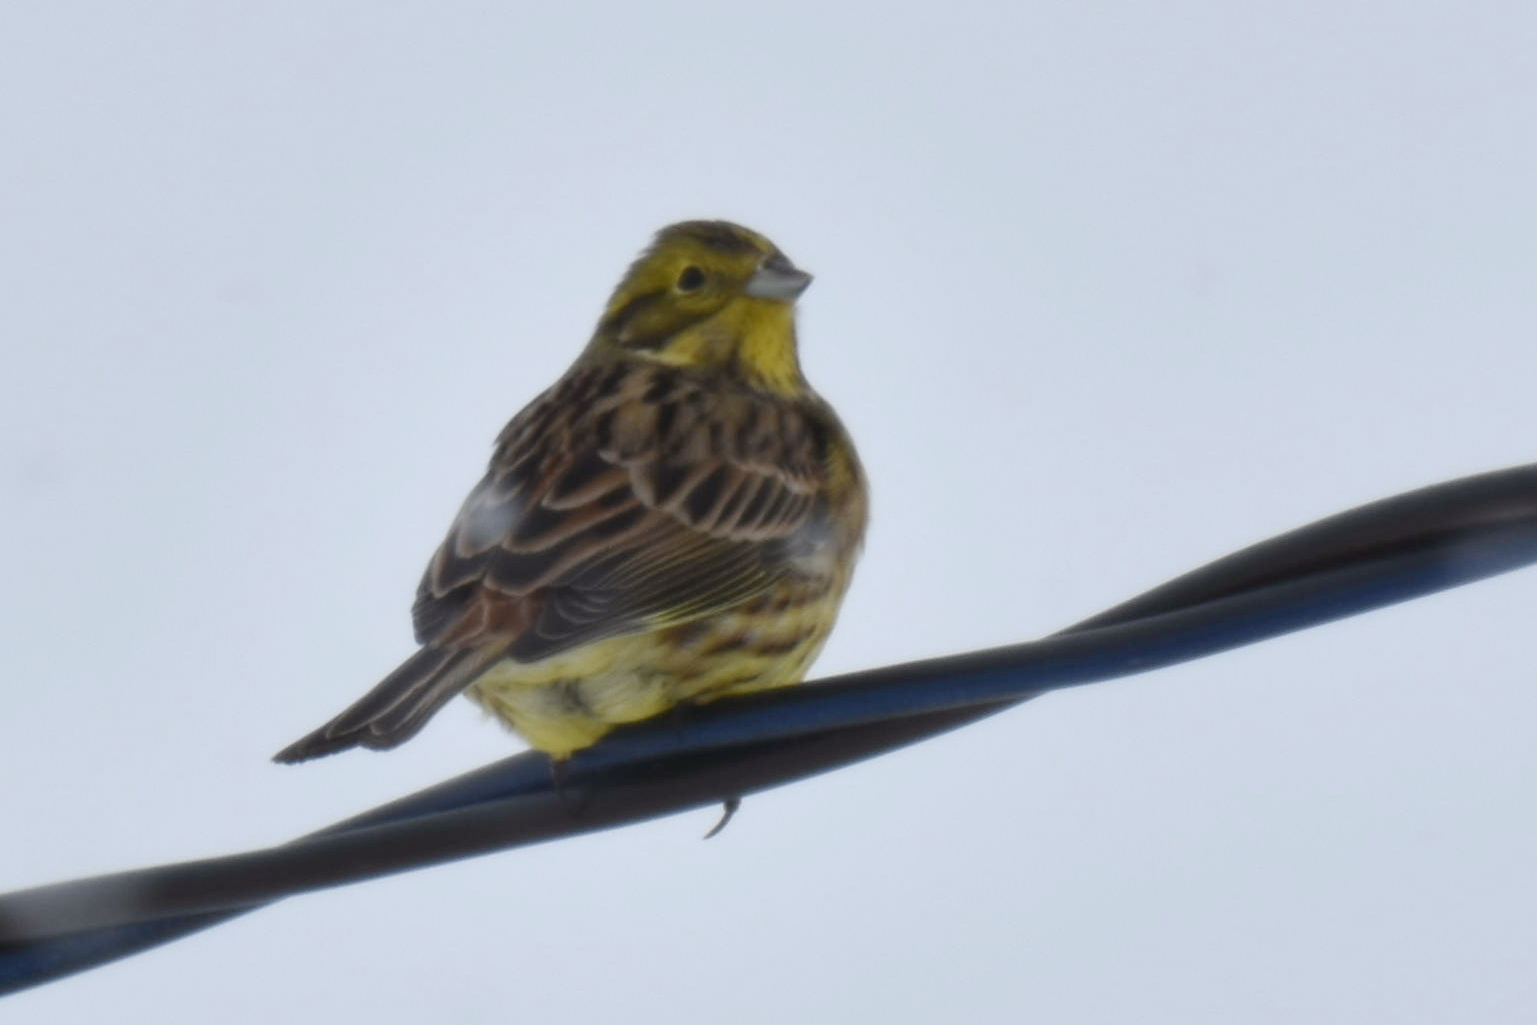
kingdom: Animalia
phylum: Chordata
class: Aves
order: Passeriformes
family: Emberizidae
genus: Emberiza
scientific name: Emberiza citrinella
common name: Yellowhammer
